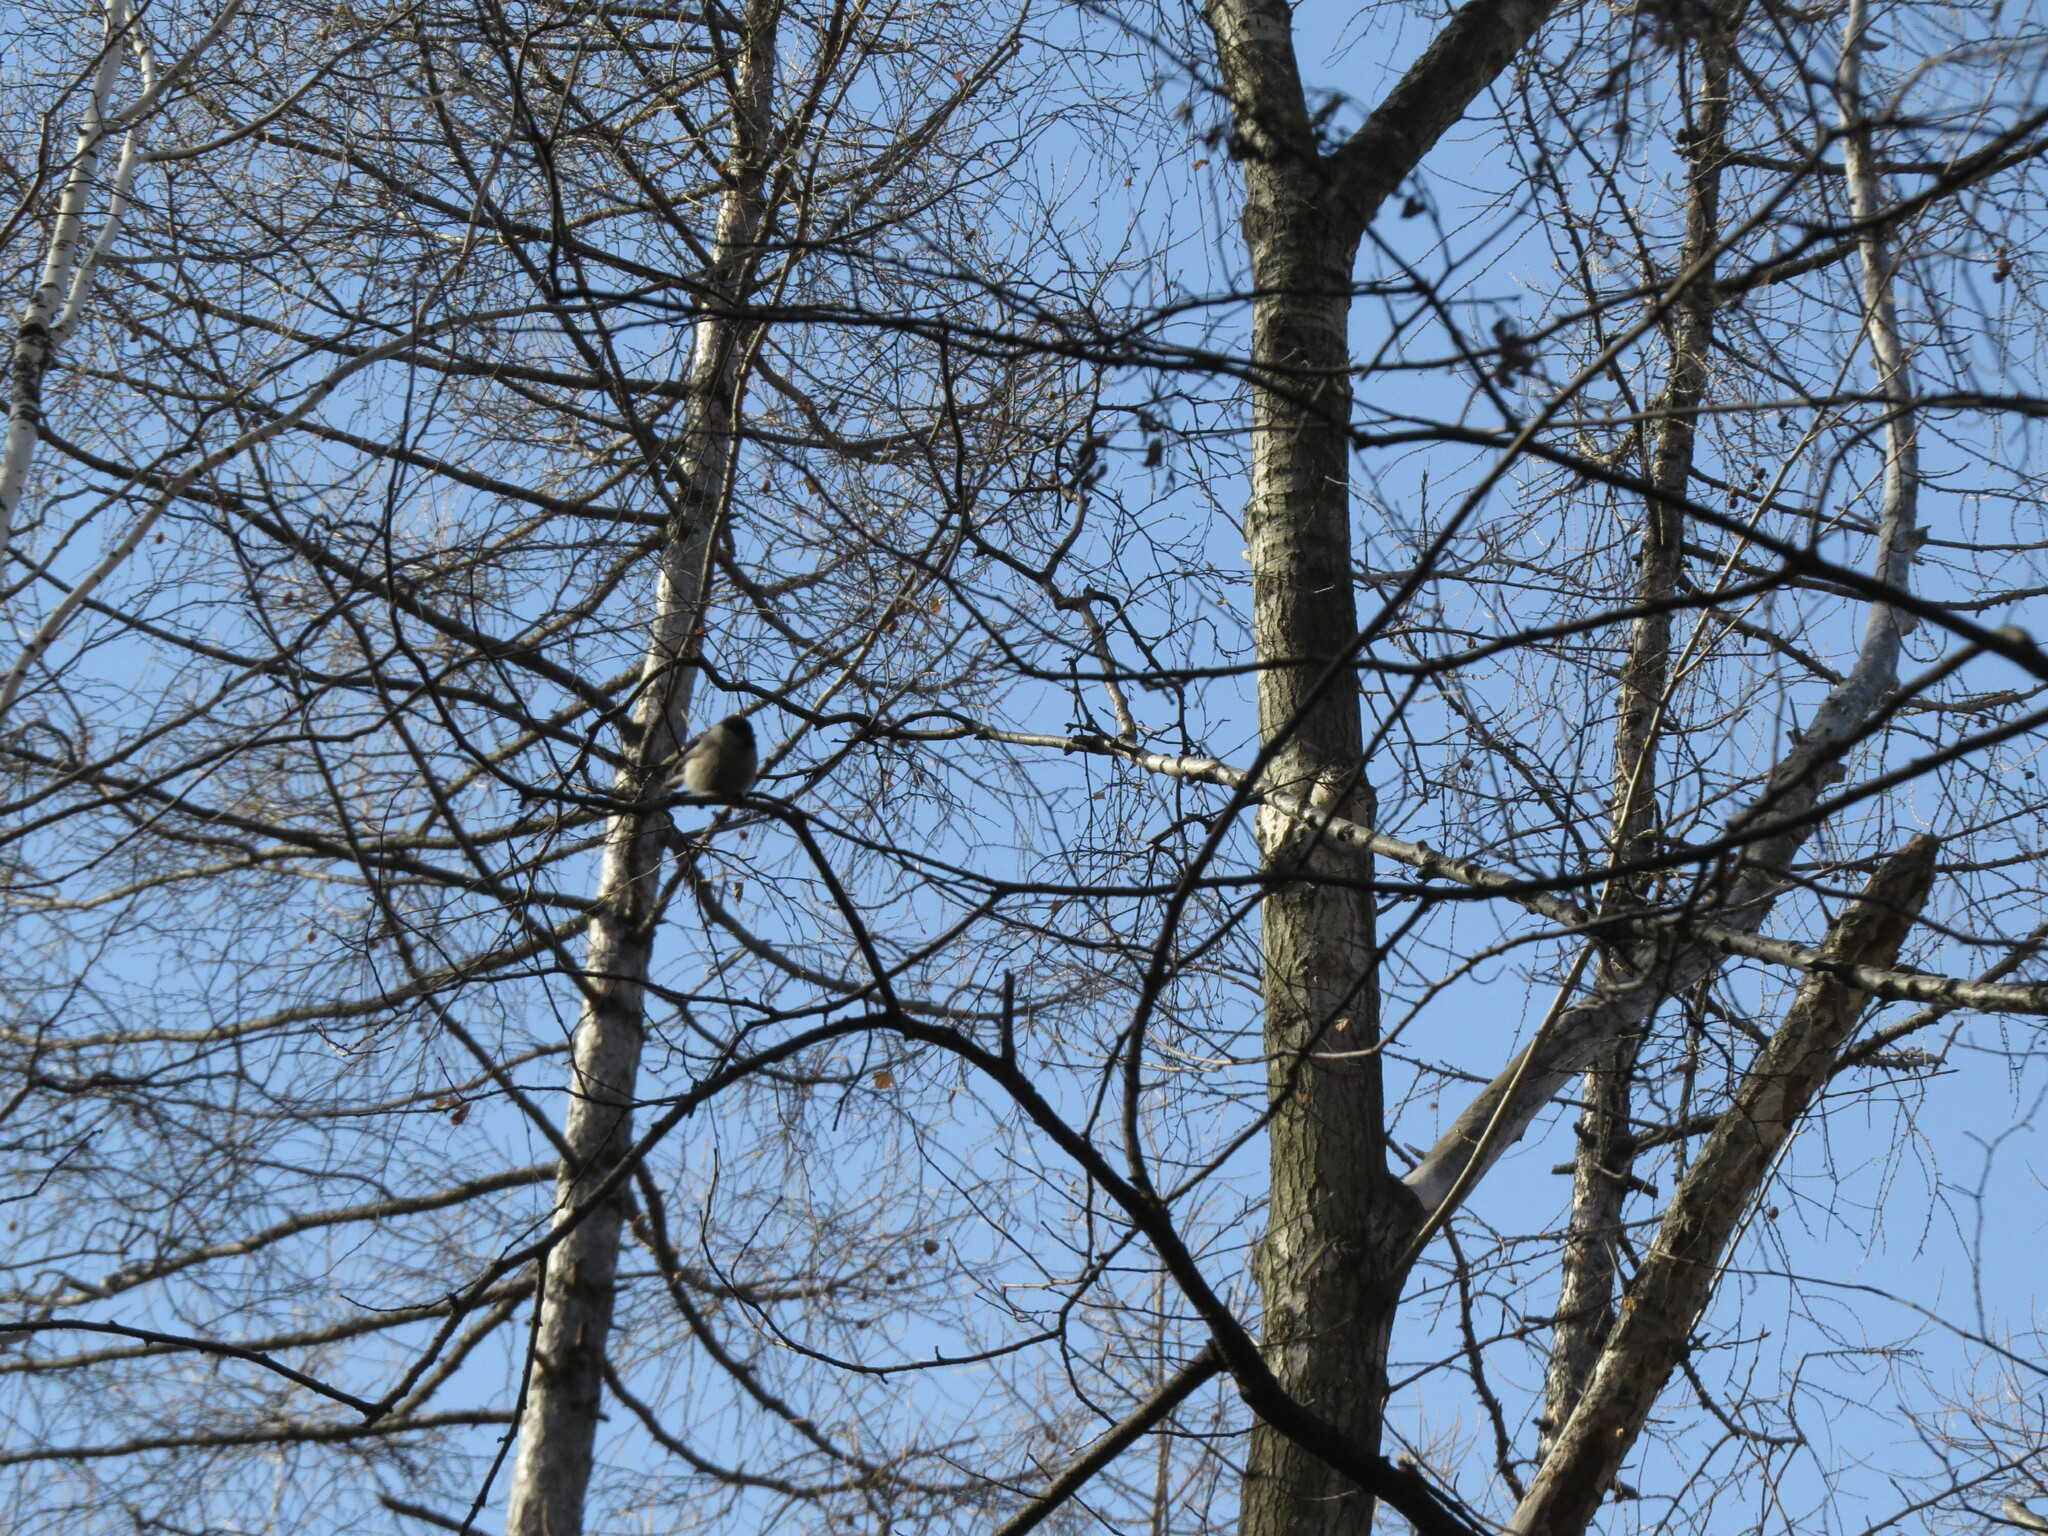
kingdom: Animalia
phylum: Chordata
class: Aves
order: Passeriformes
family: Paridae
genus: Poecile
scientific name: Poecile montanus
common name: Willow tit
